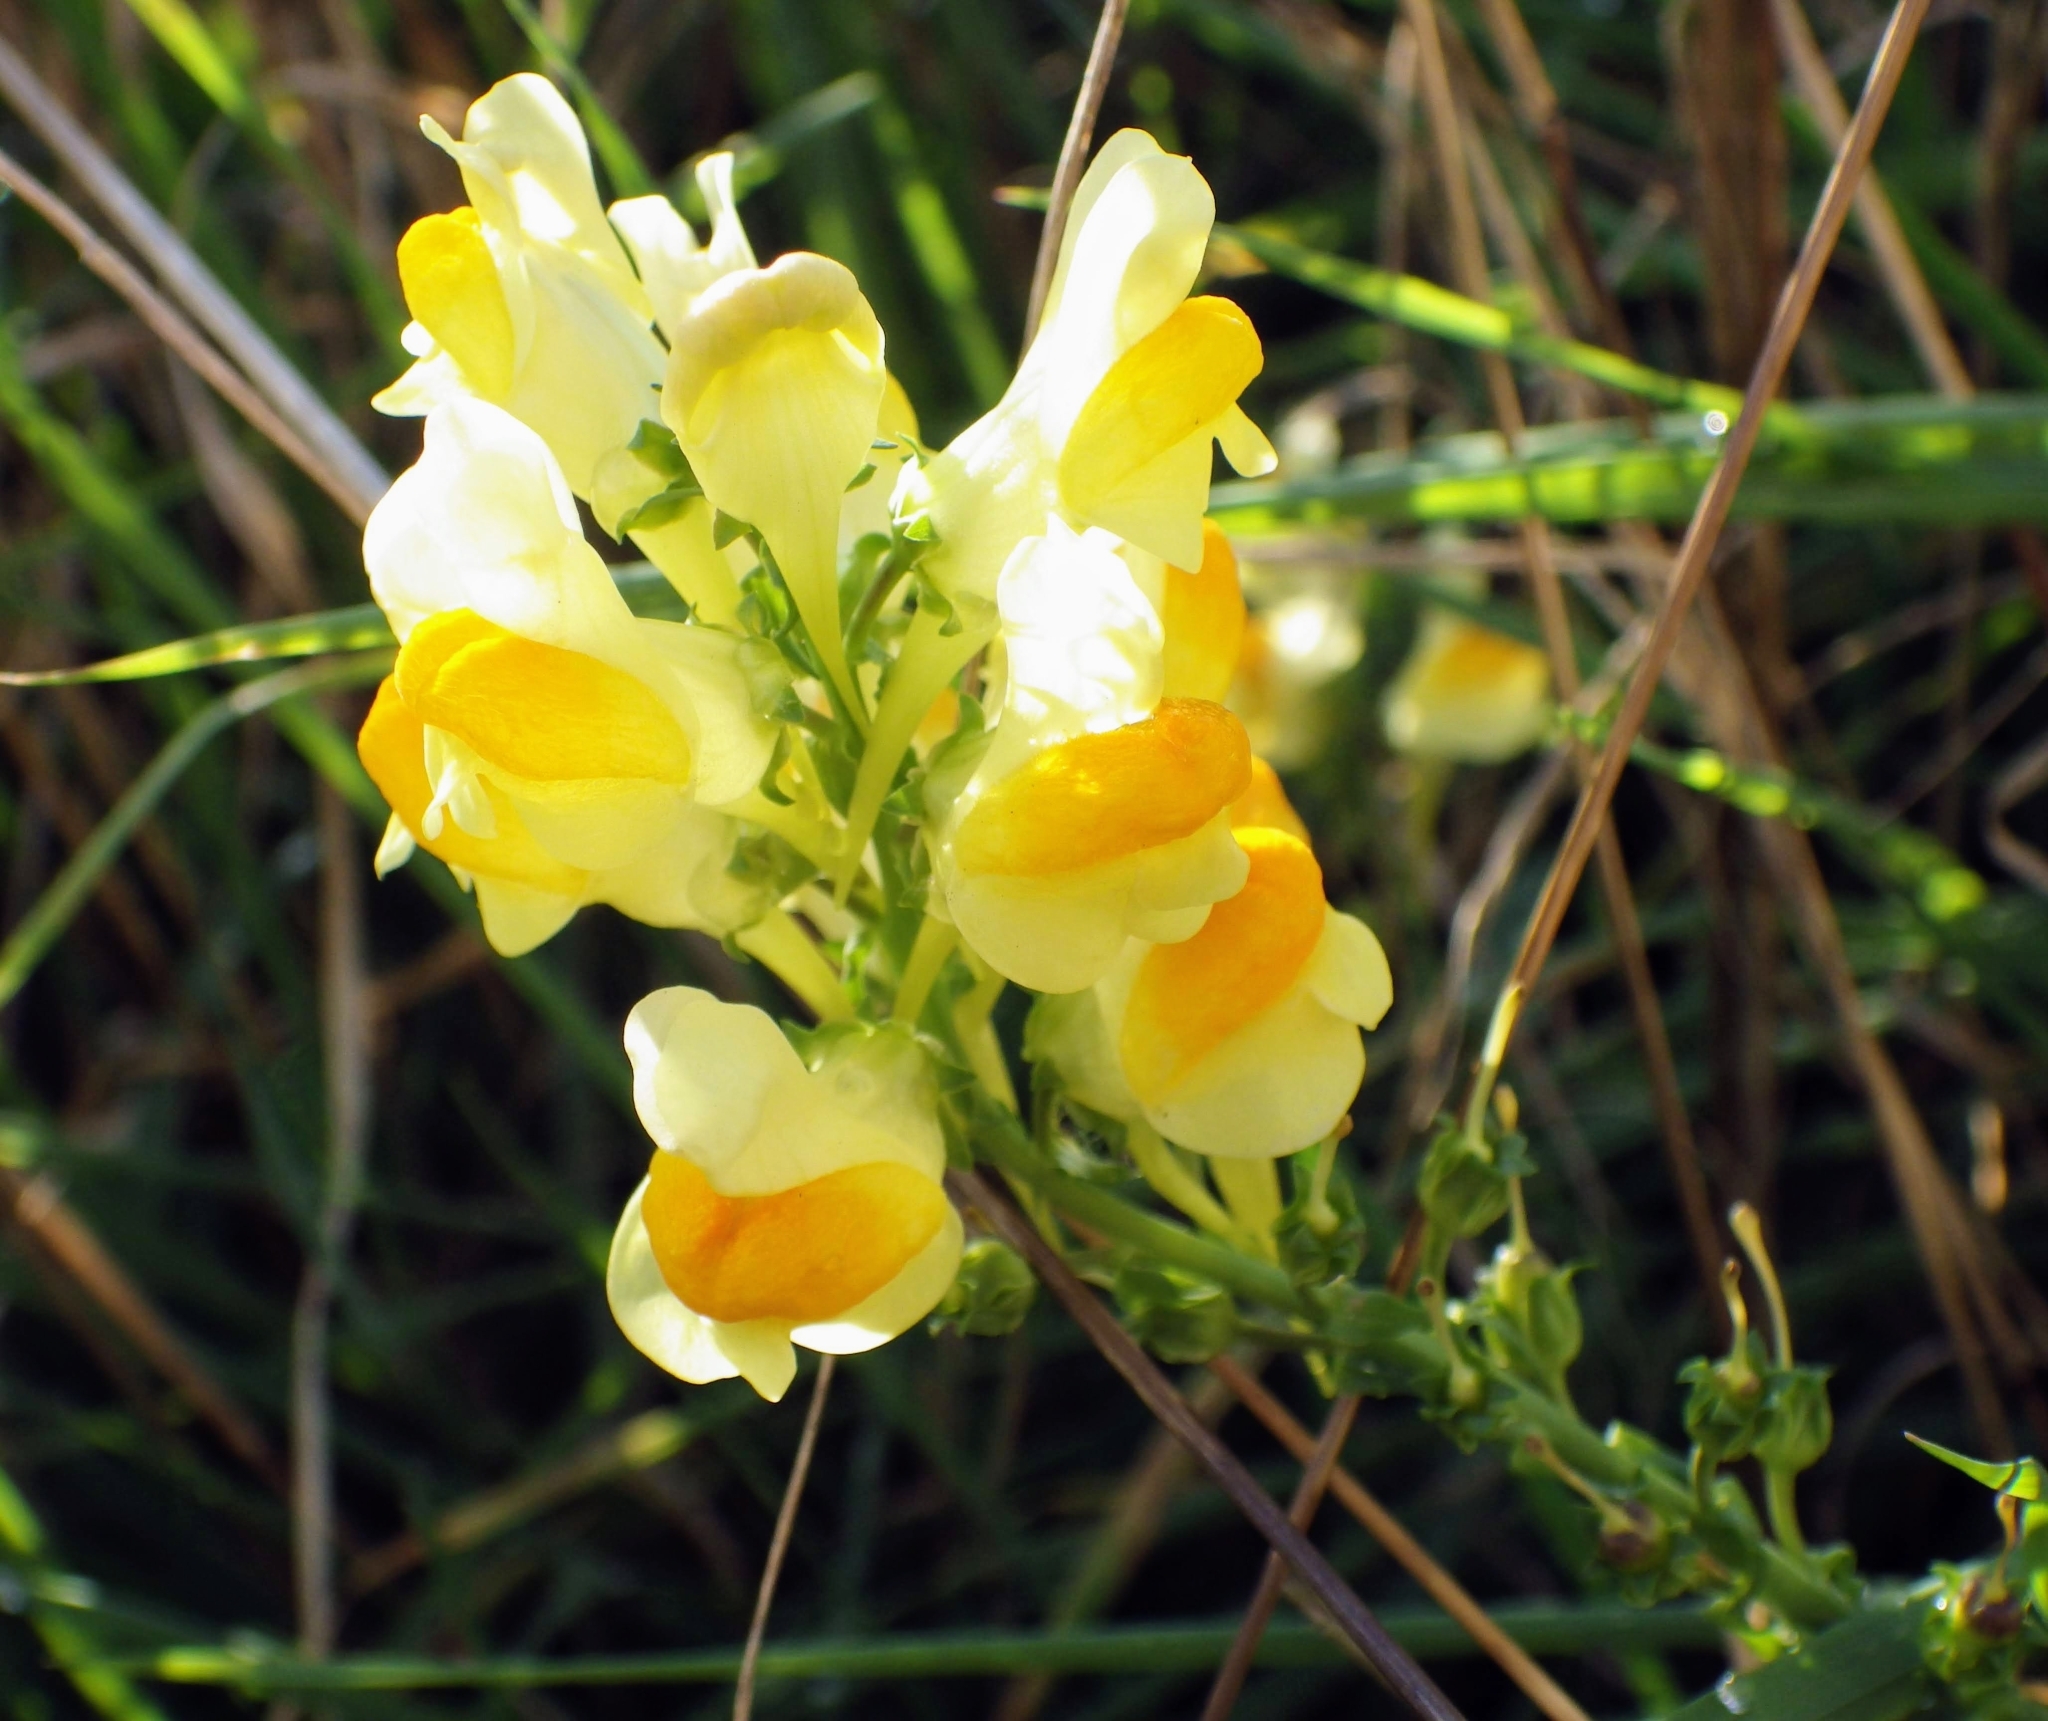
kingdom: Plantae
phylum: Tracheophyta
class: Magnoliopsida
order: Lamiales
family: Plantaginaceae
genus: Linaria
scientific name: Linaria vulgaris
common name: Butter and eggs
